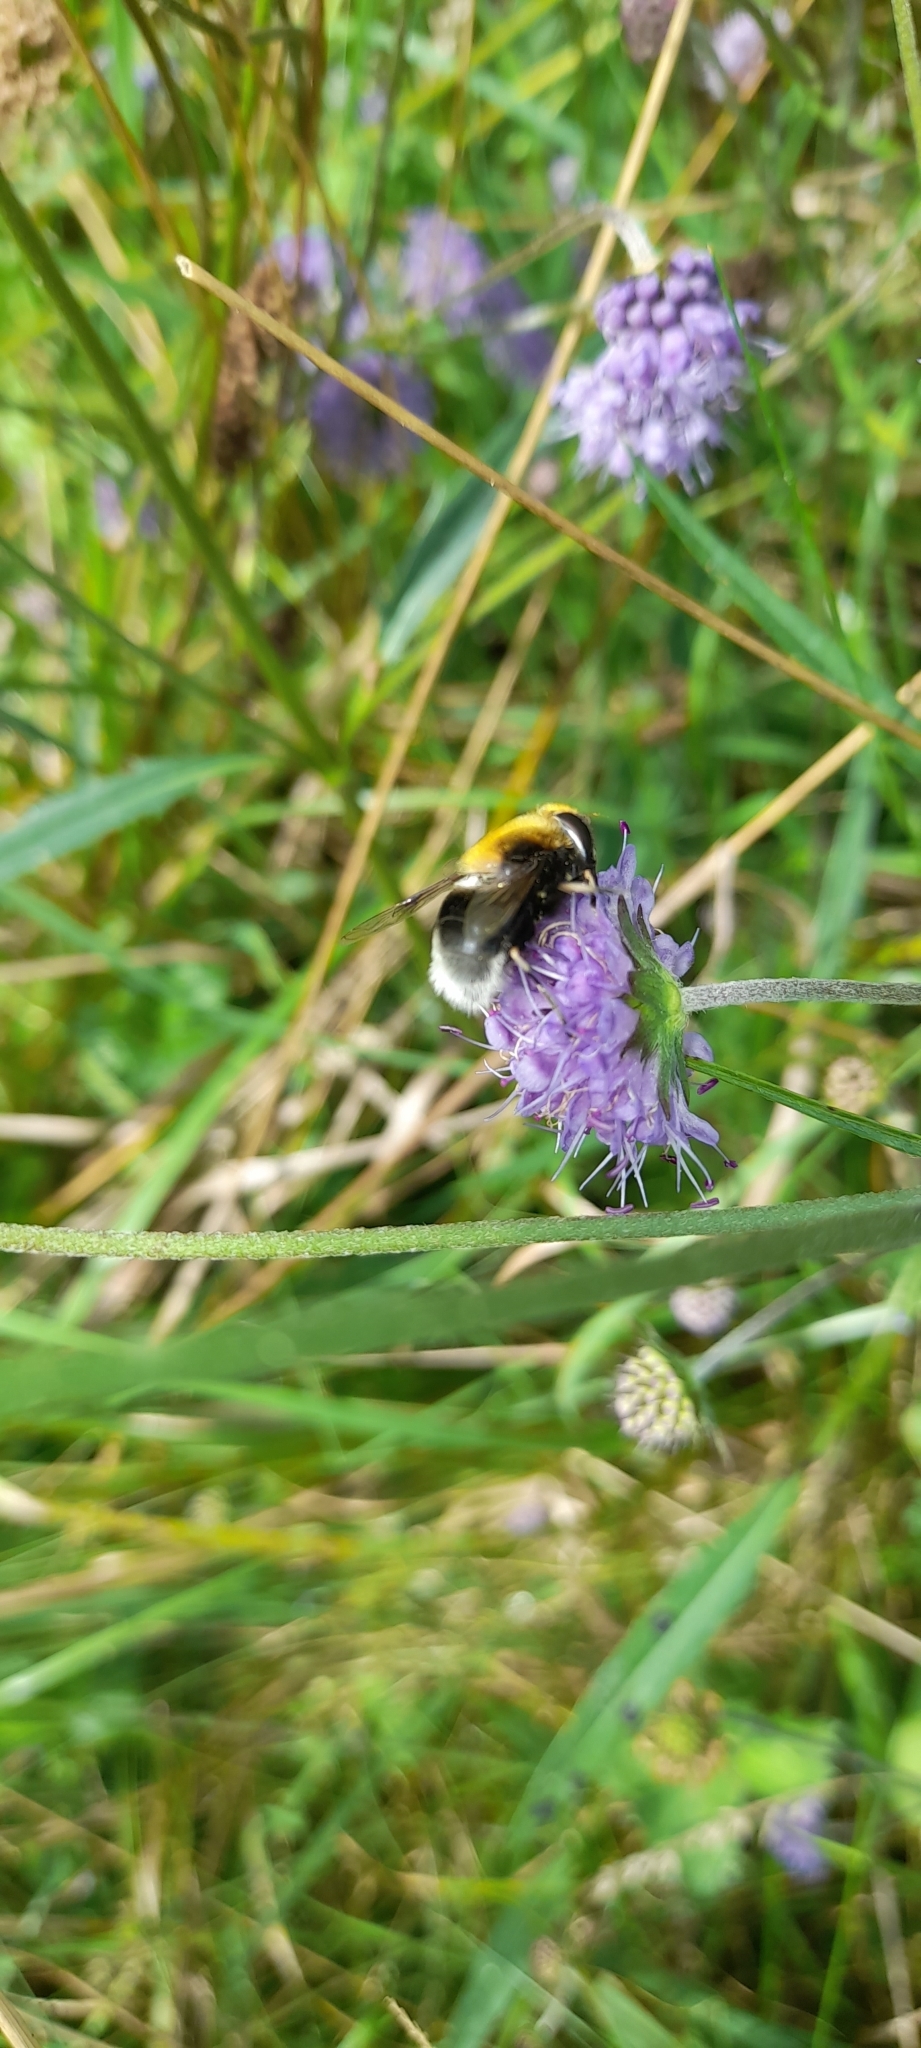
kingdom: Animalia
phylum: Arthropoda
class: Insecta
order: Diptera
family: Syrphidae
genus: Eristalis
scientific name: Eristalis intricaria
